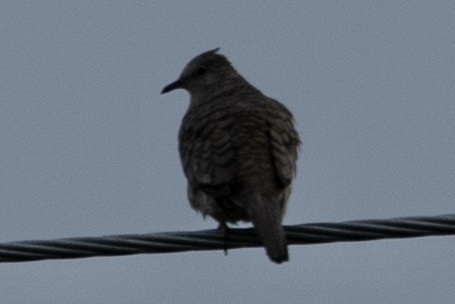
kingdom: Animalia
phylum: Chordata
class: Aves
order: Columbiformes
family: Columbidae
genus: Columbina
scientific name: Columbina inca
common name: Inca dove
